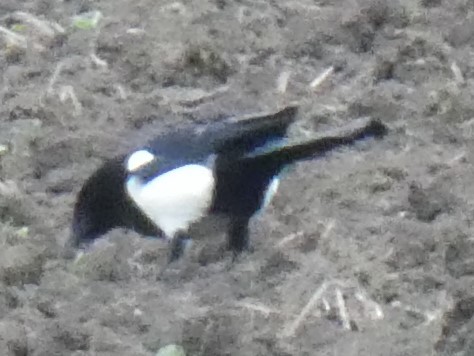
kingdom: Animalia
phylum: Chordata
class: Aves
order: Passeriformes
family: Corvidae
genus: Pica
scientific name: Pica pica
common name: Eurasian magpie
